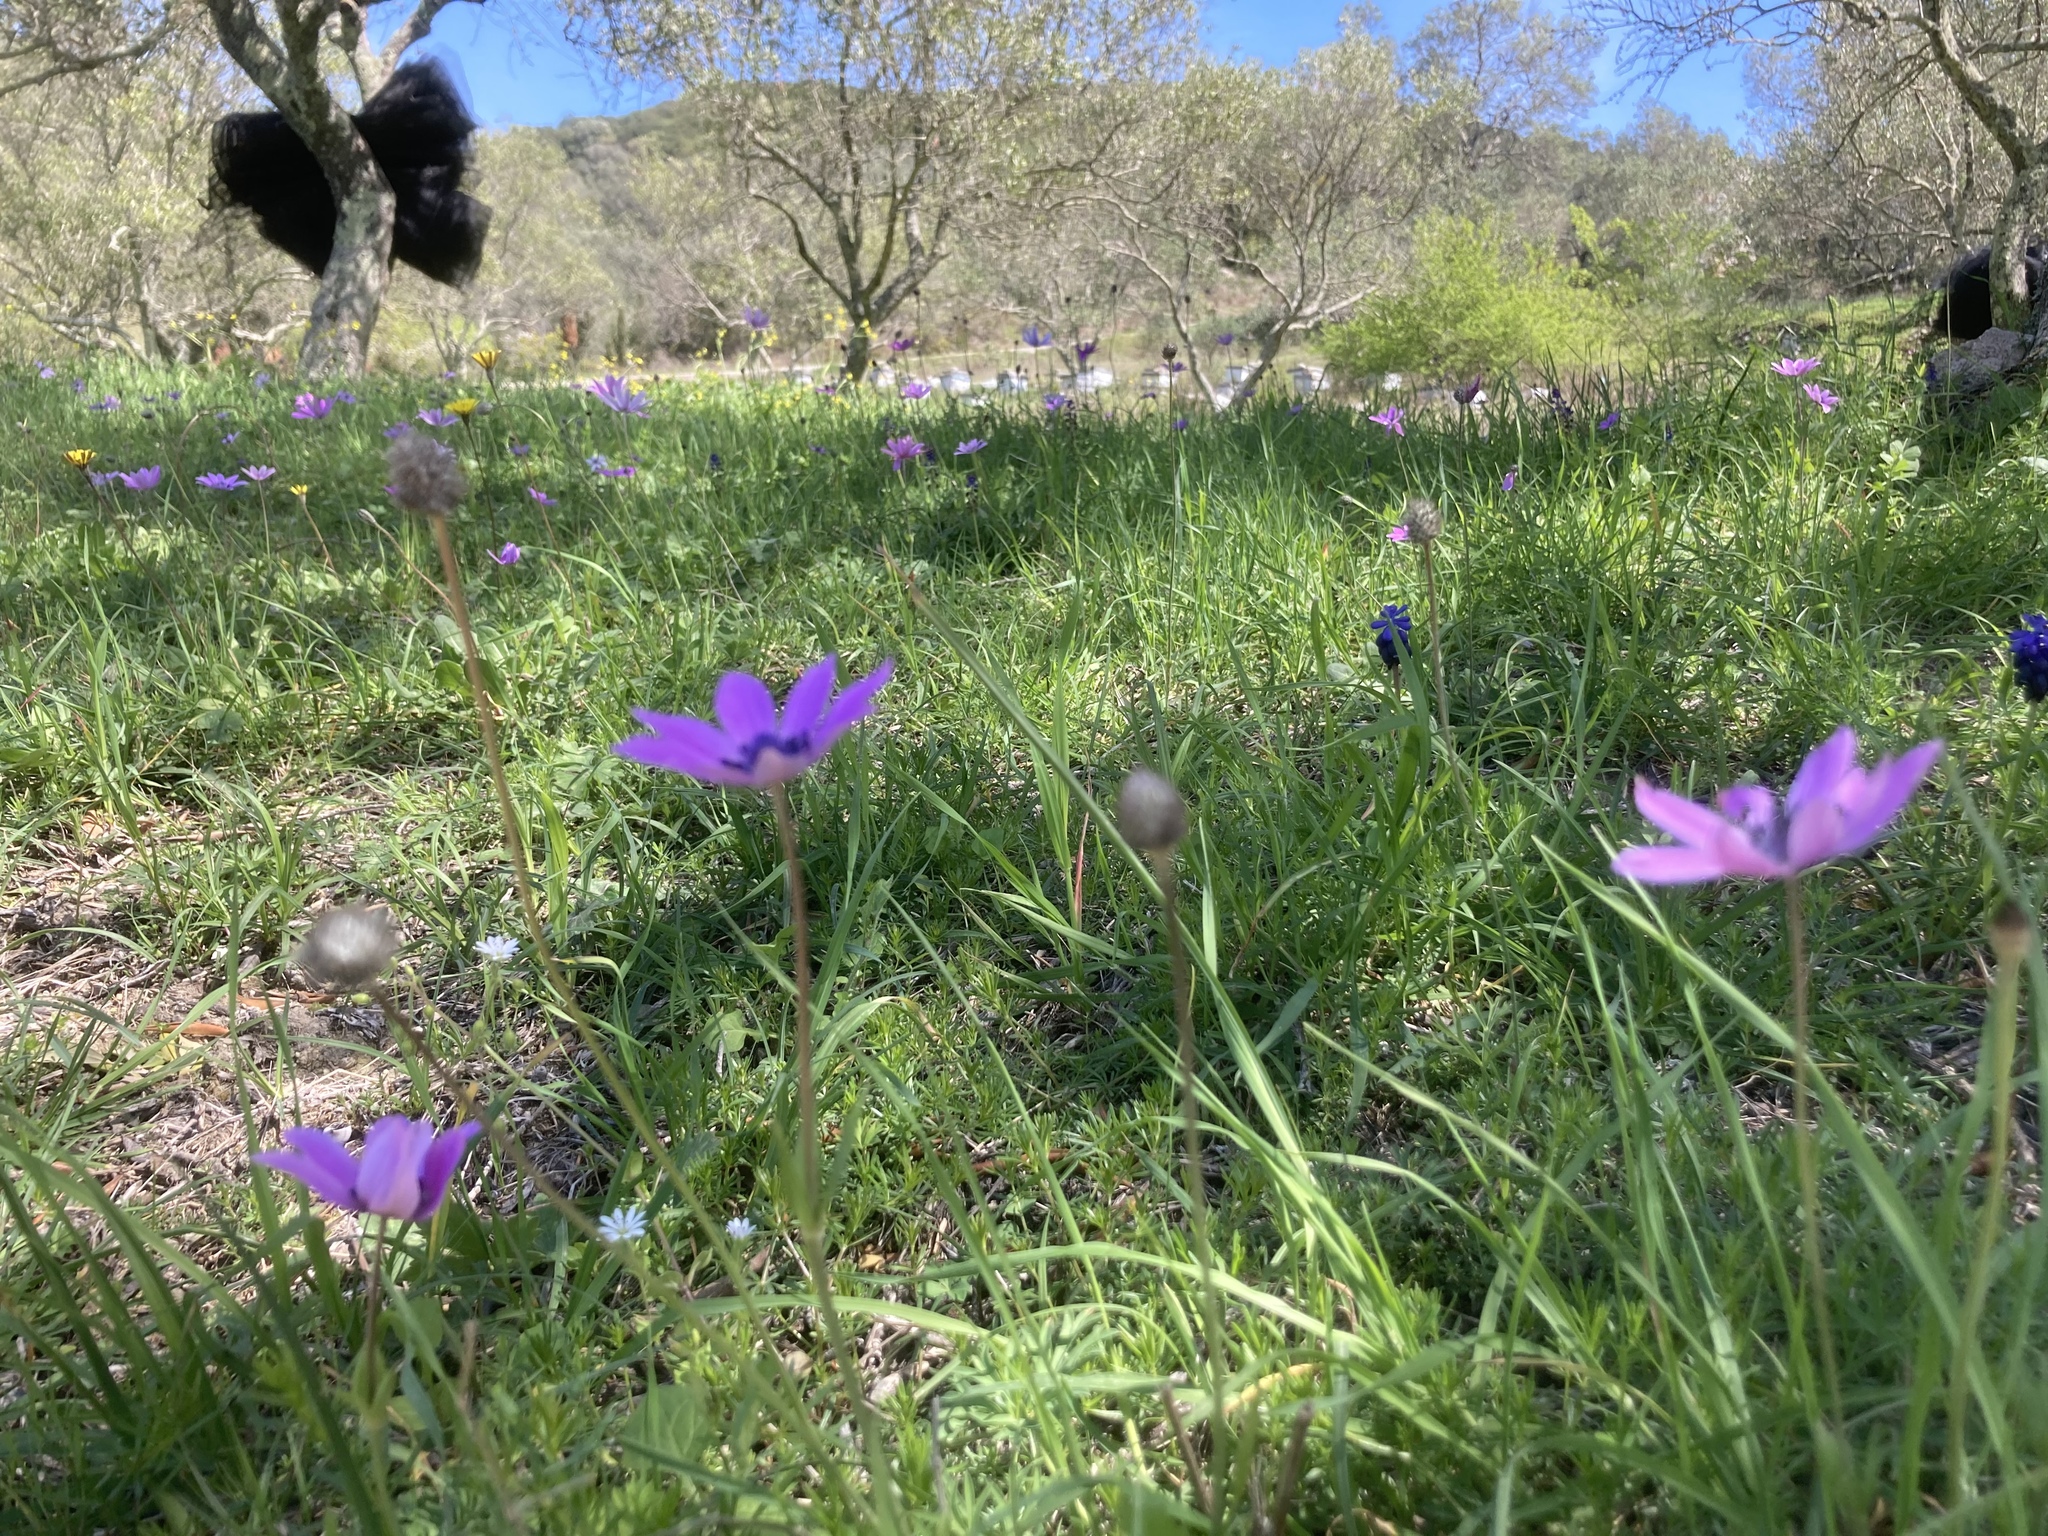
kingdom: Plantae
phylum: Tracheophyta
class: Magnoliopsida
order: Ranunculales
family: Ranunculaceae
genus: Anemone
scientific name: Anemone pavonina
